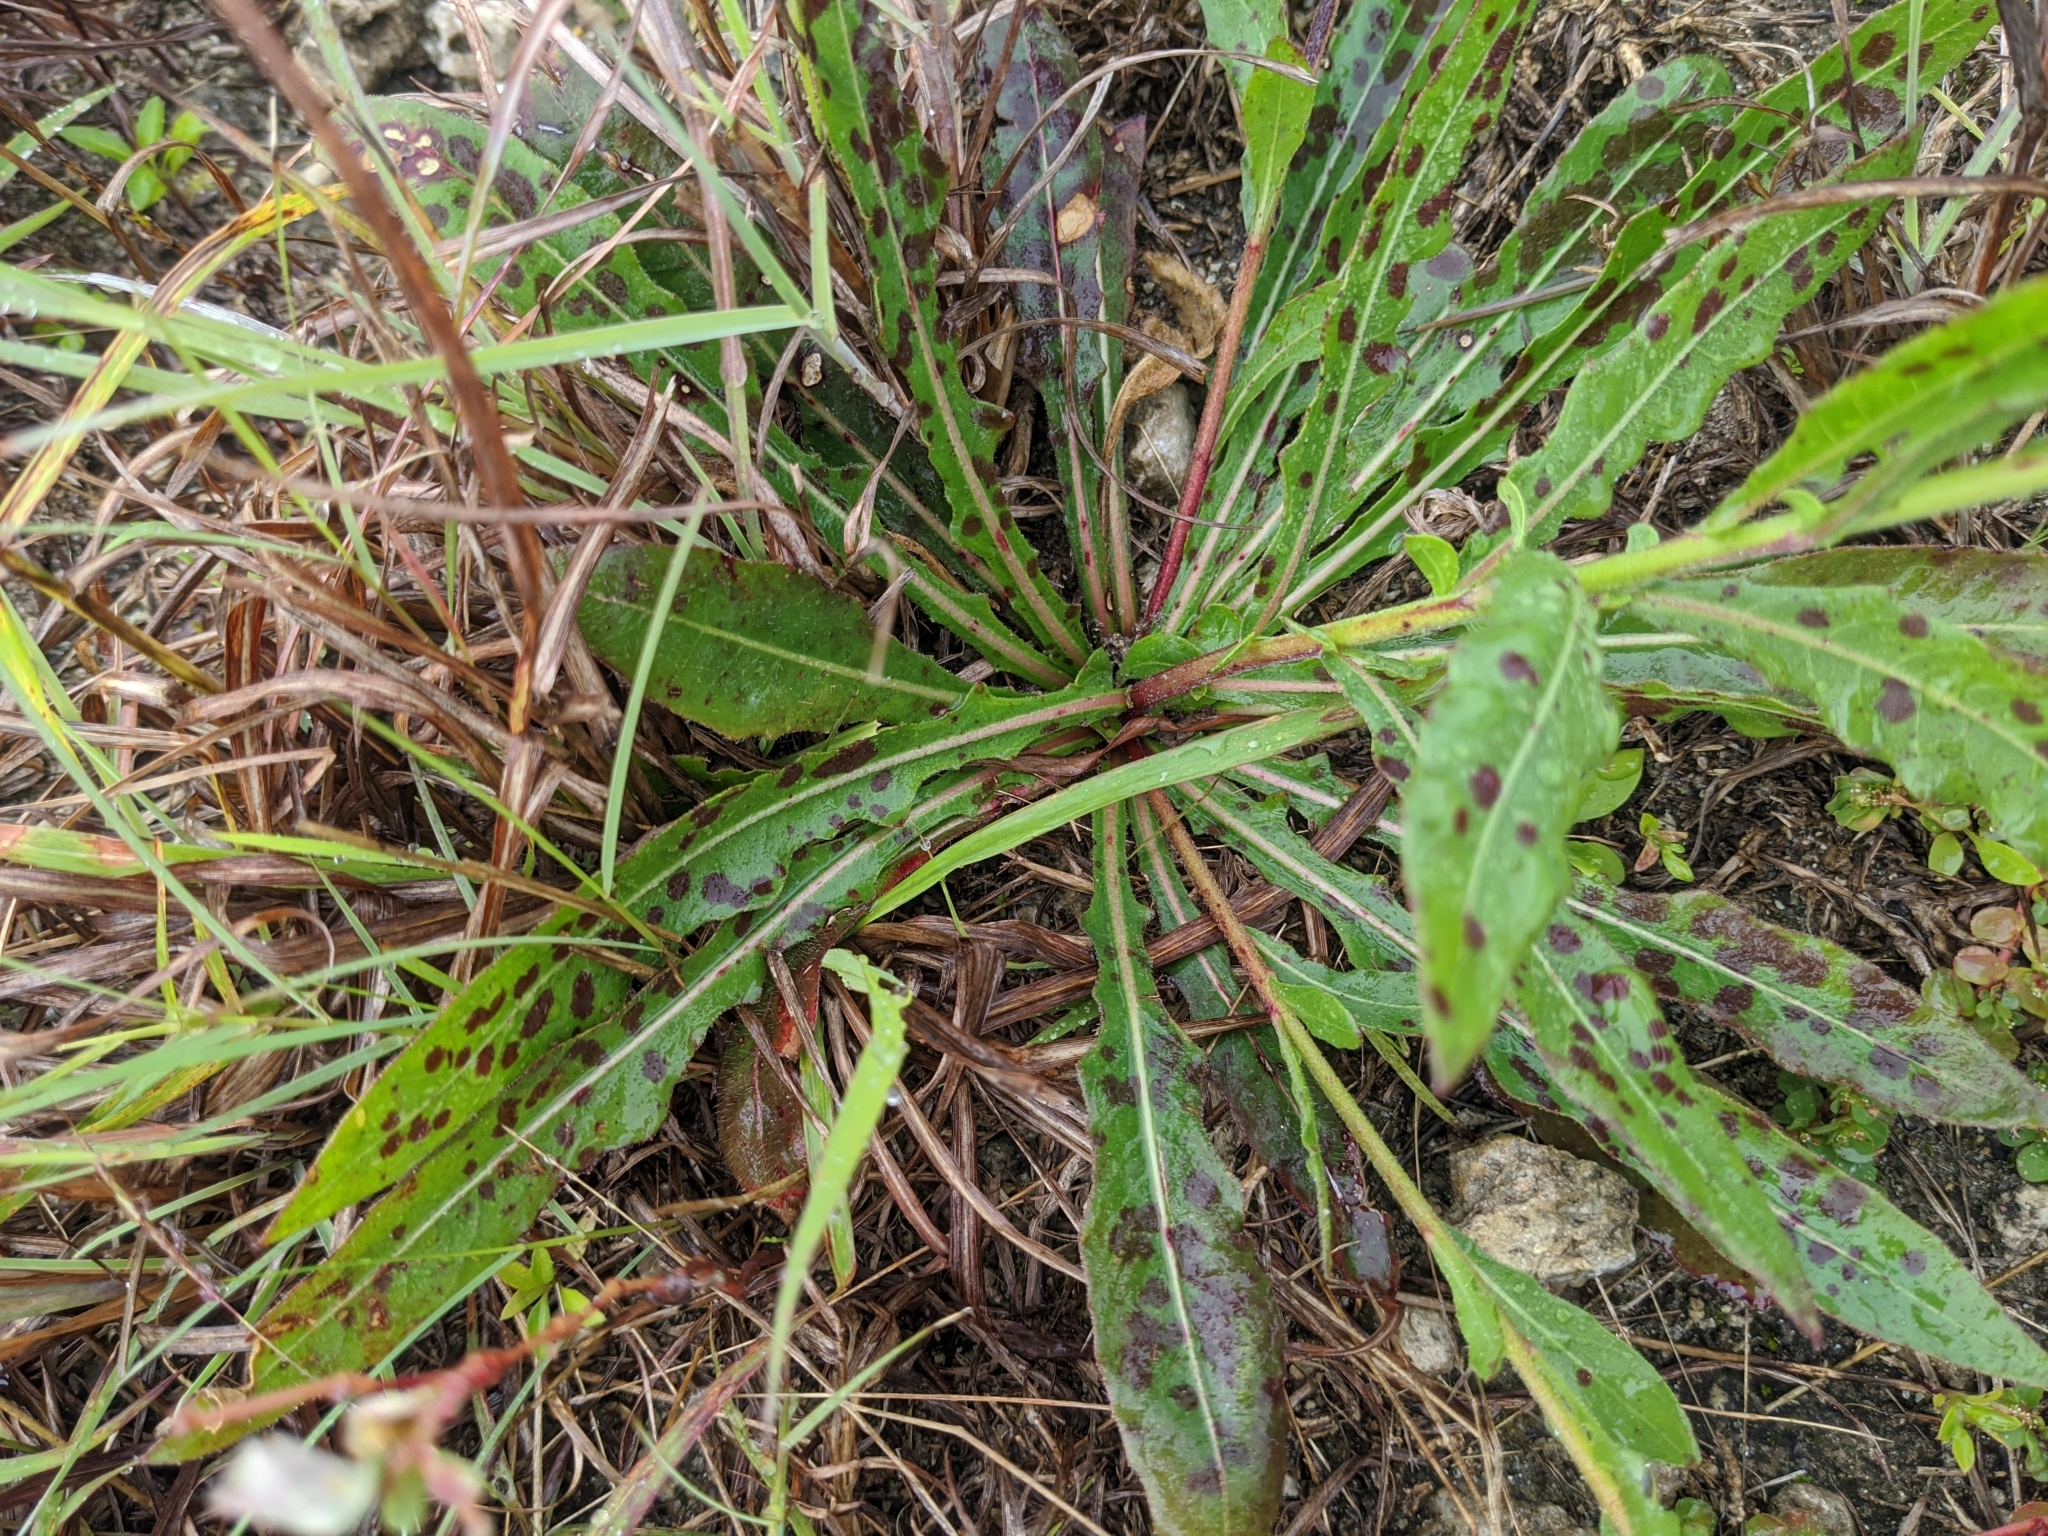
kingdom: Plantae
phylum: Tracheophyta
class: Magnoliopsida
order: Myrtales
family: Onagraceae
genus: Oenothera
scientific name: Oenothera simulans
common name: Southern beeblossom
